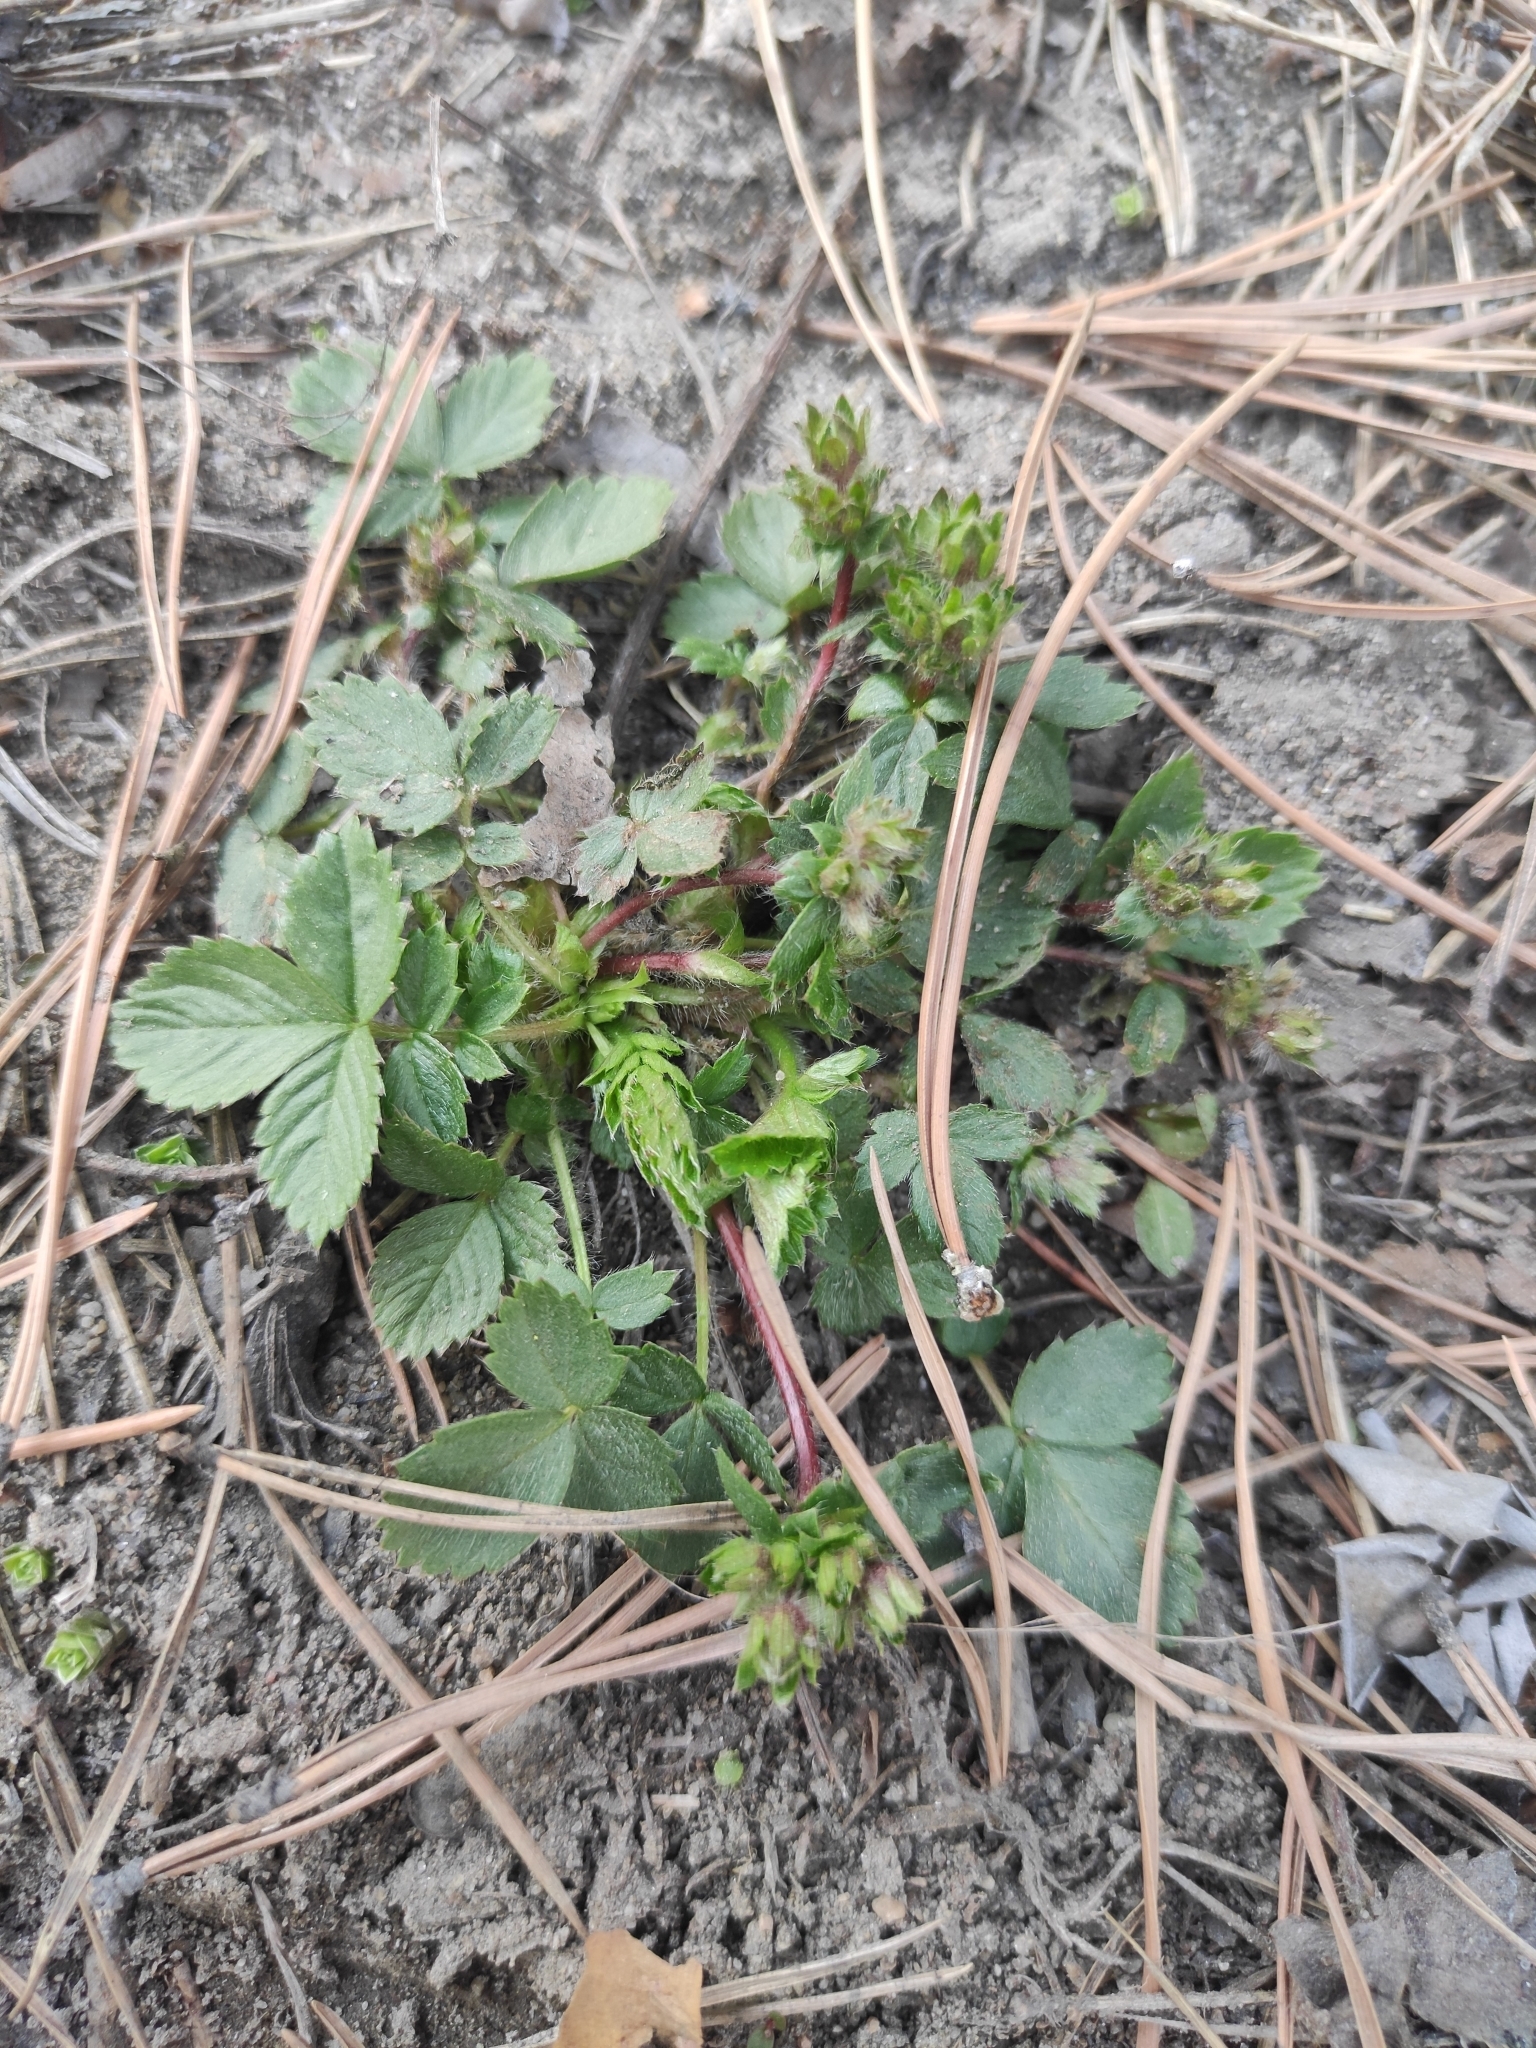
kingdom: Plantae
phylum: Tracheophyta
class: Magnoliopsida
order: Rosales
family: Rosaceae
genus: Potentilla
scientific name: Potentilla fragarioides
